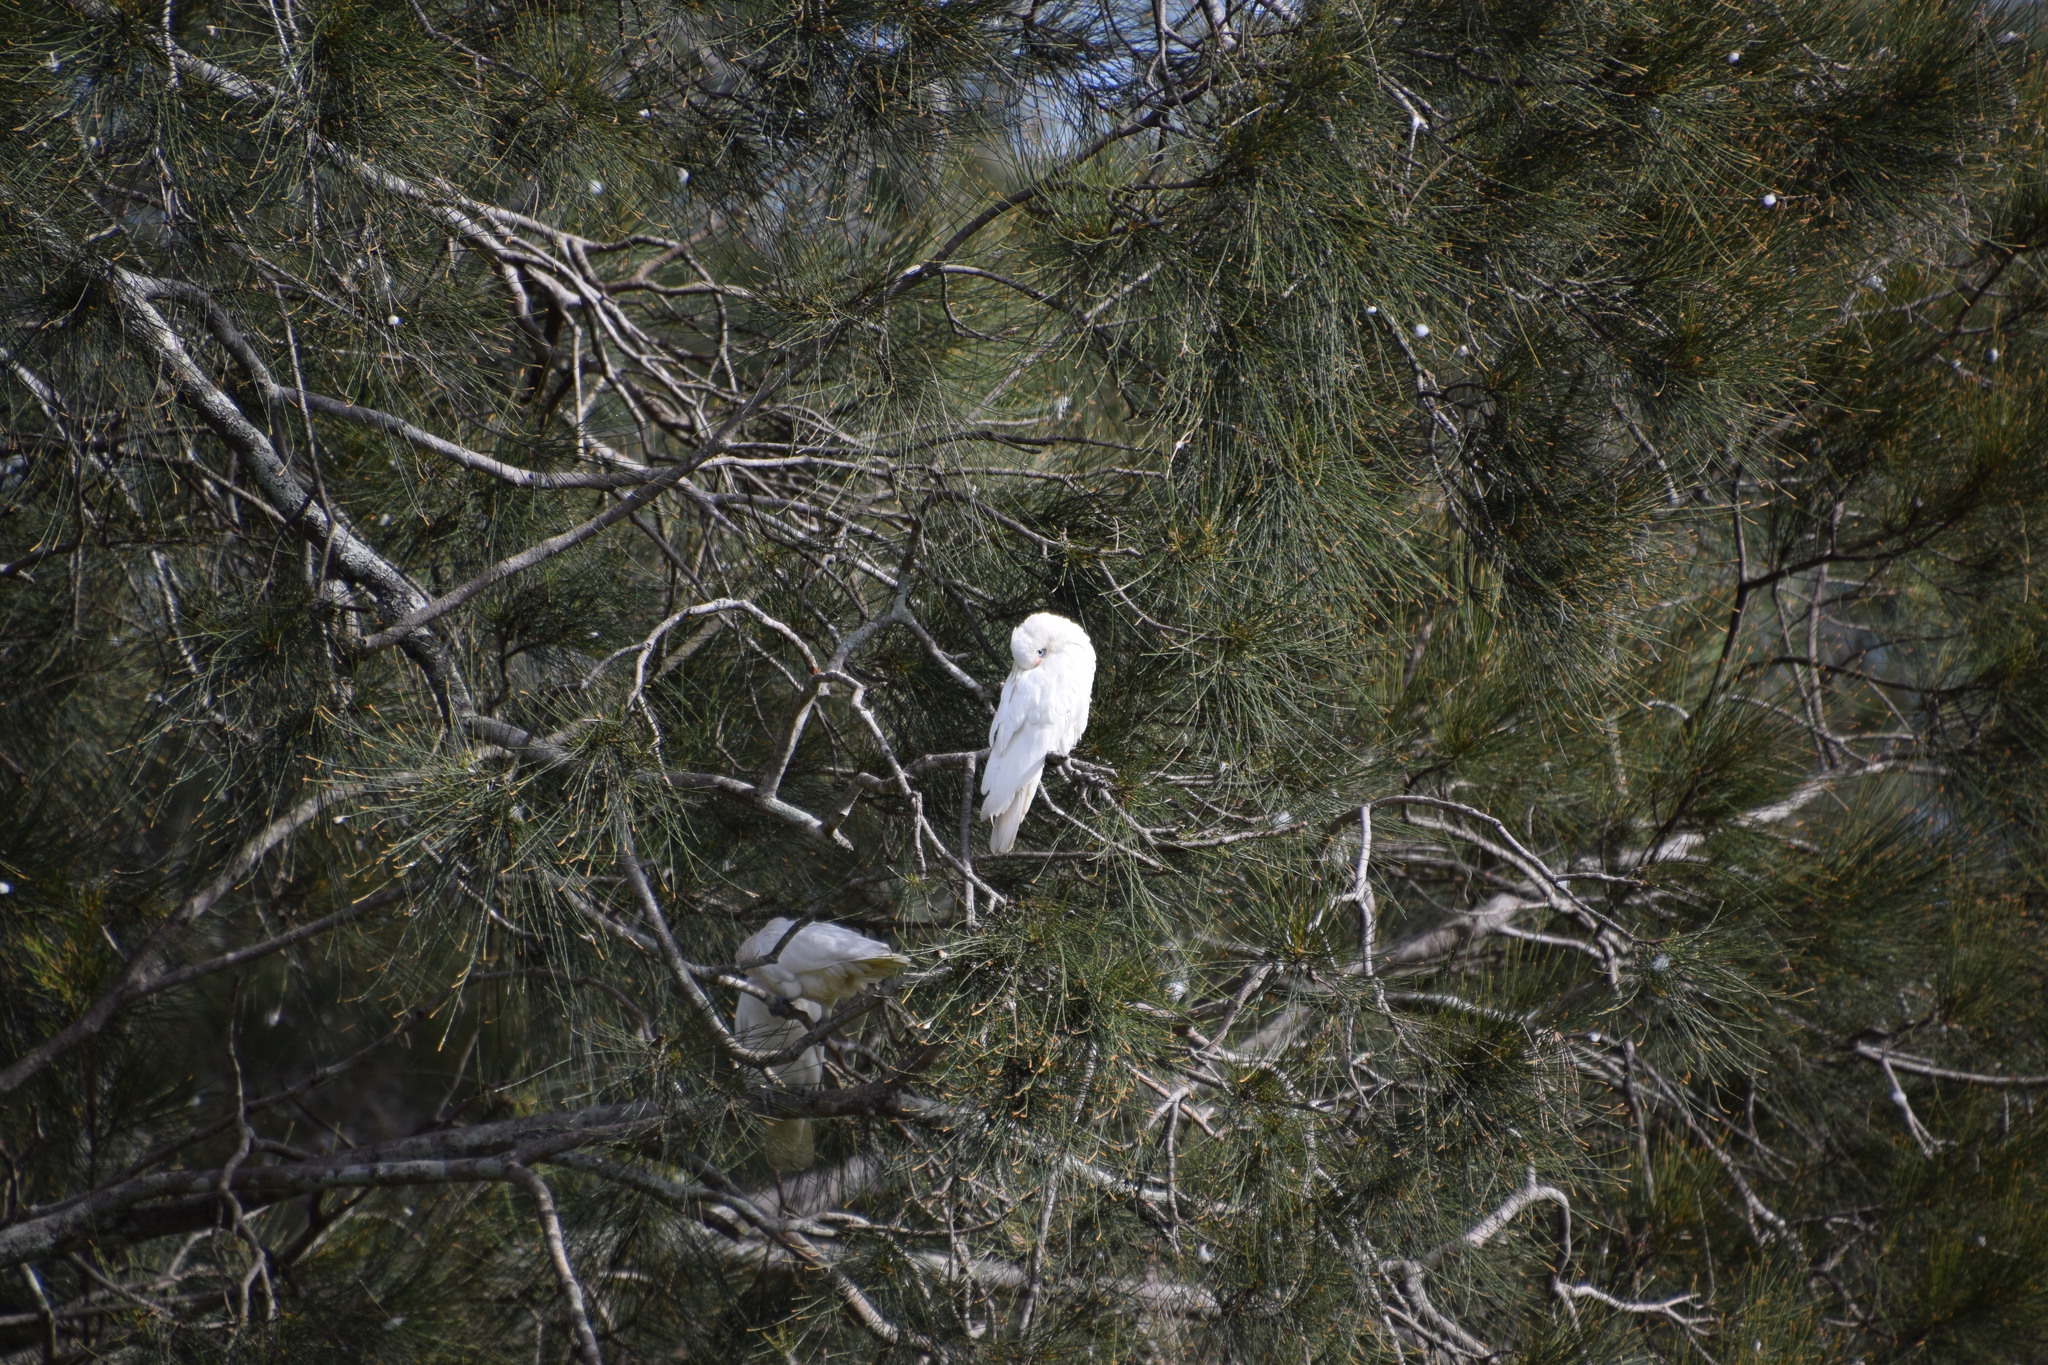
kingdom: Animalia
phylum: Chordata
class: Aves
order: Psittaciformes
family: Psittacidae
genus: Cacatua
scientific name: Cacatua sanguinea
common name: Little corella
